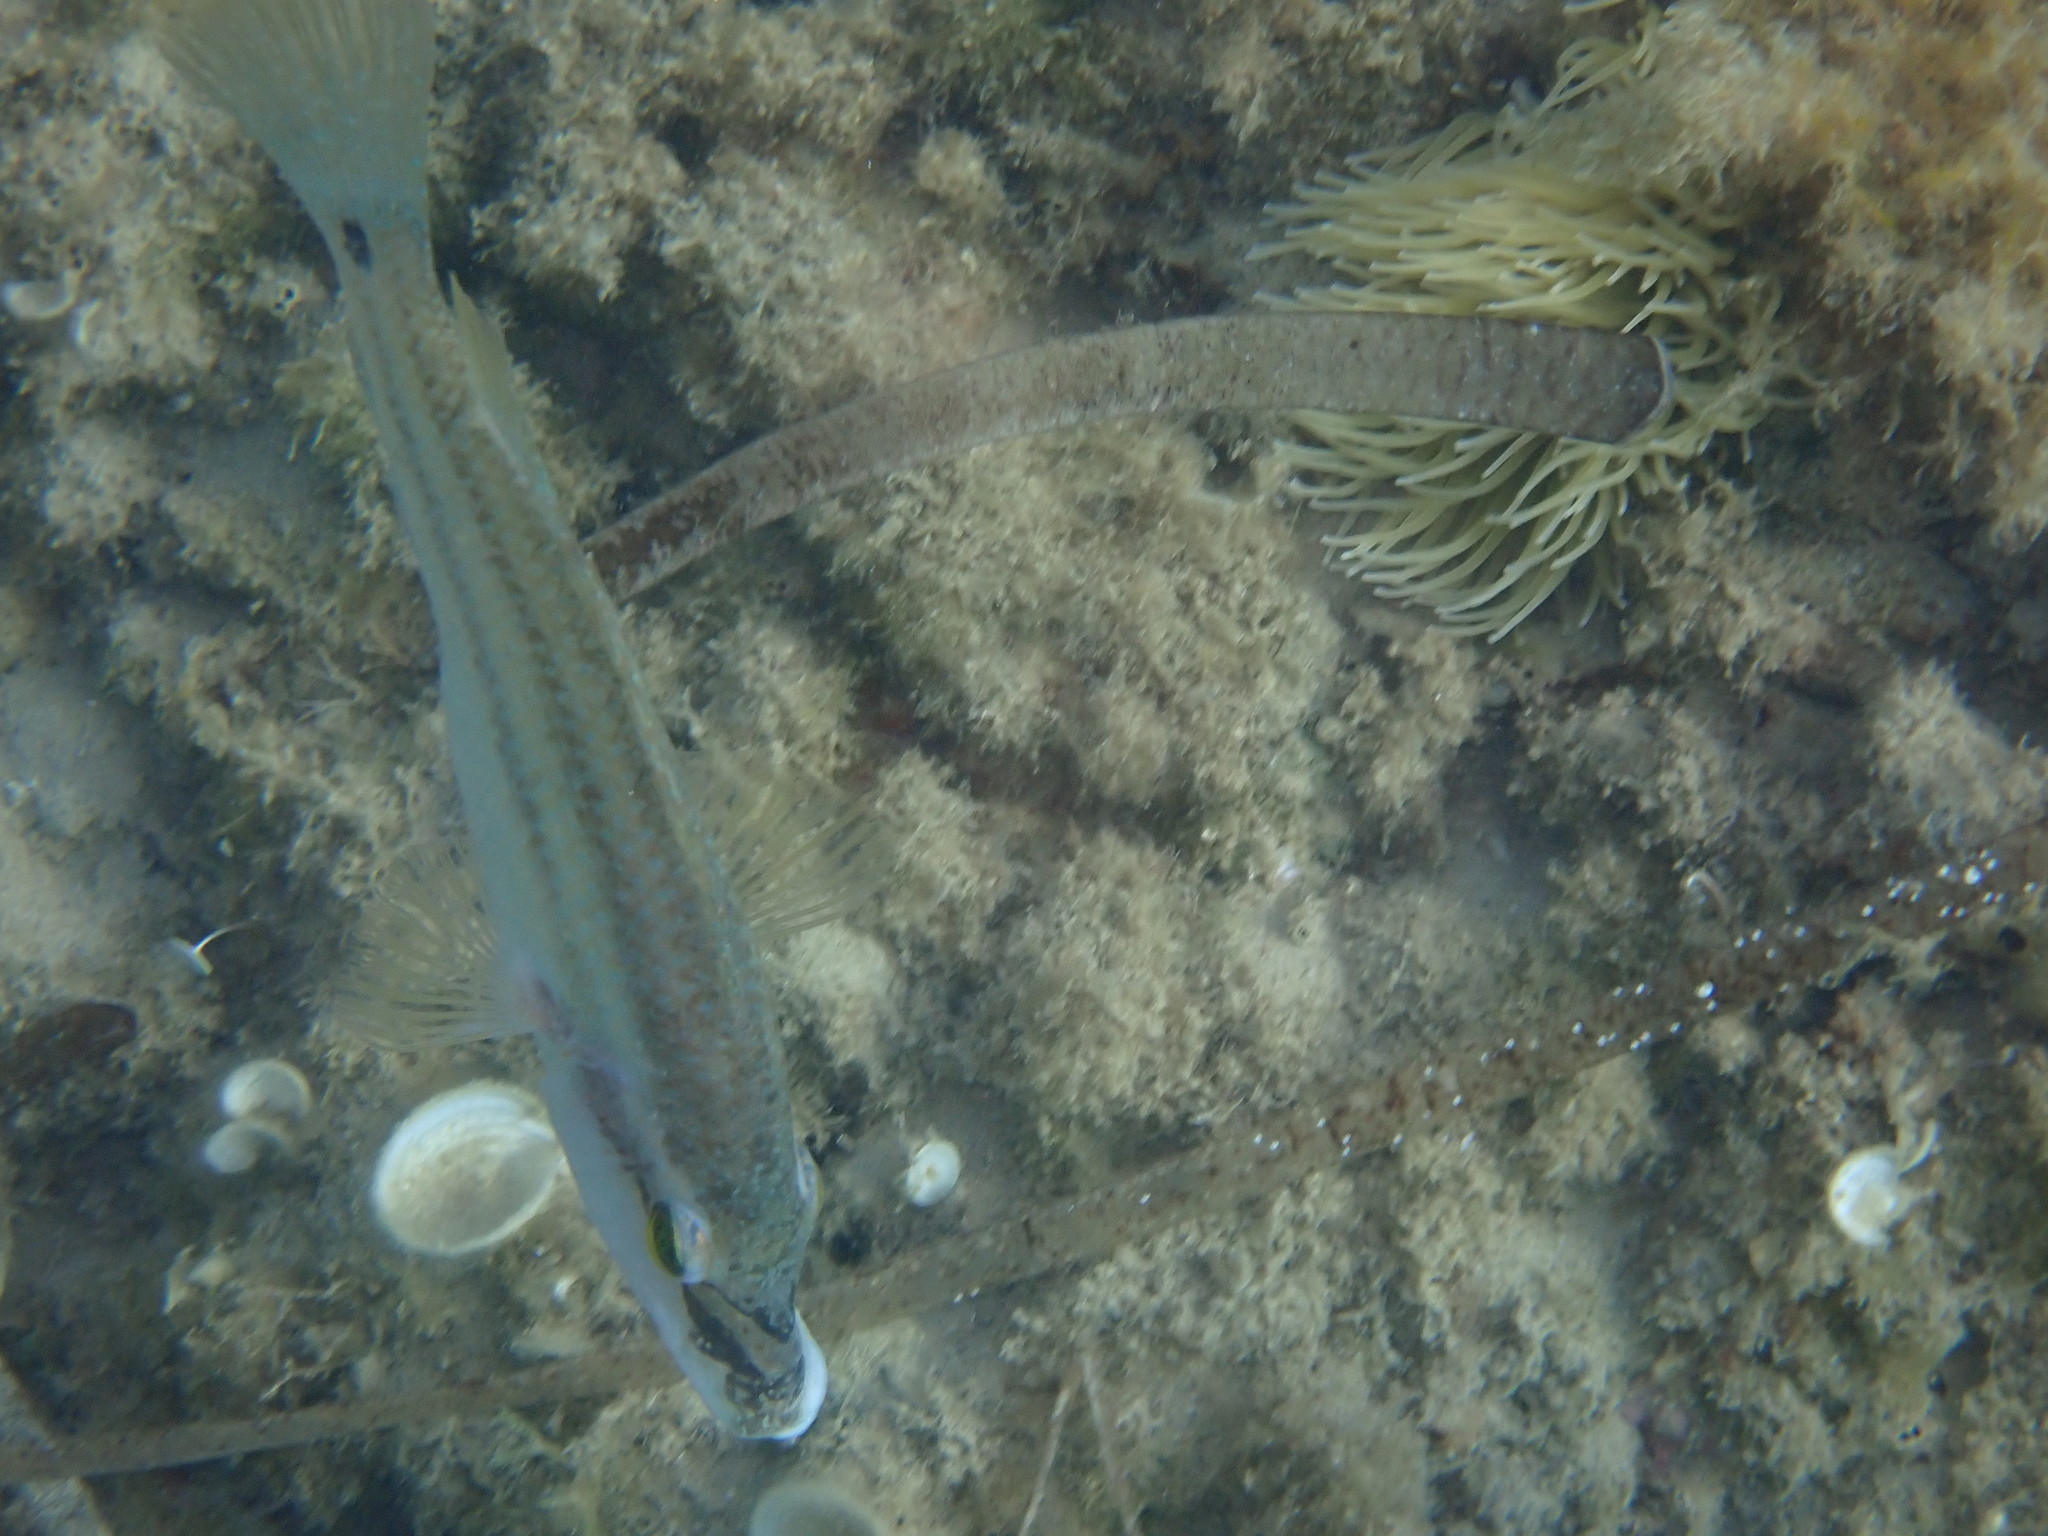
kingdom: Animalia
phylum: Chordata
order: Perciformes
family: Labridae
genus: Symphodus
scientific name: Symphodus tinca
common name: Peacock wrasse
